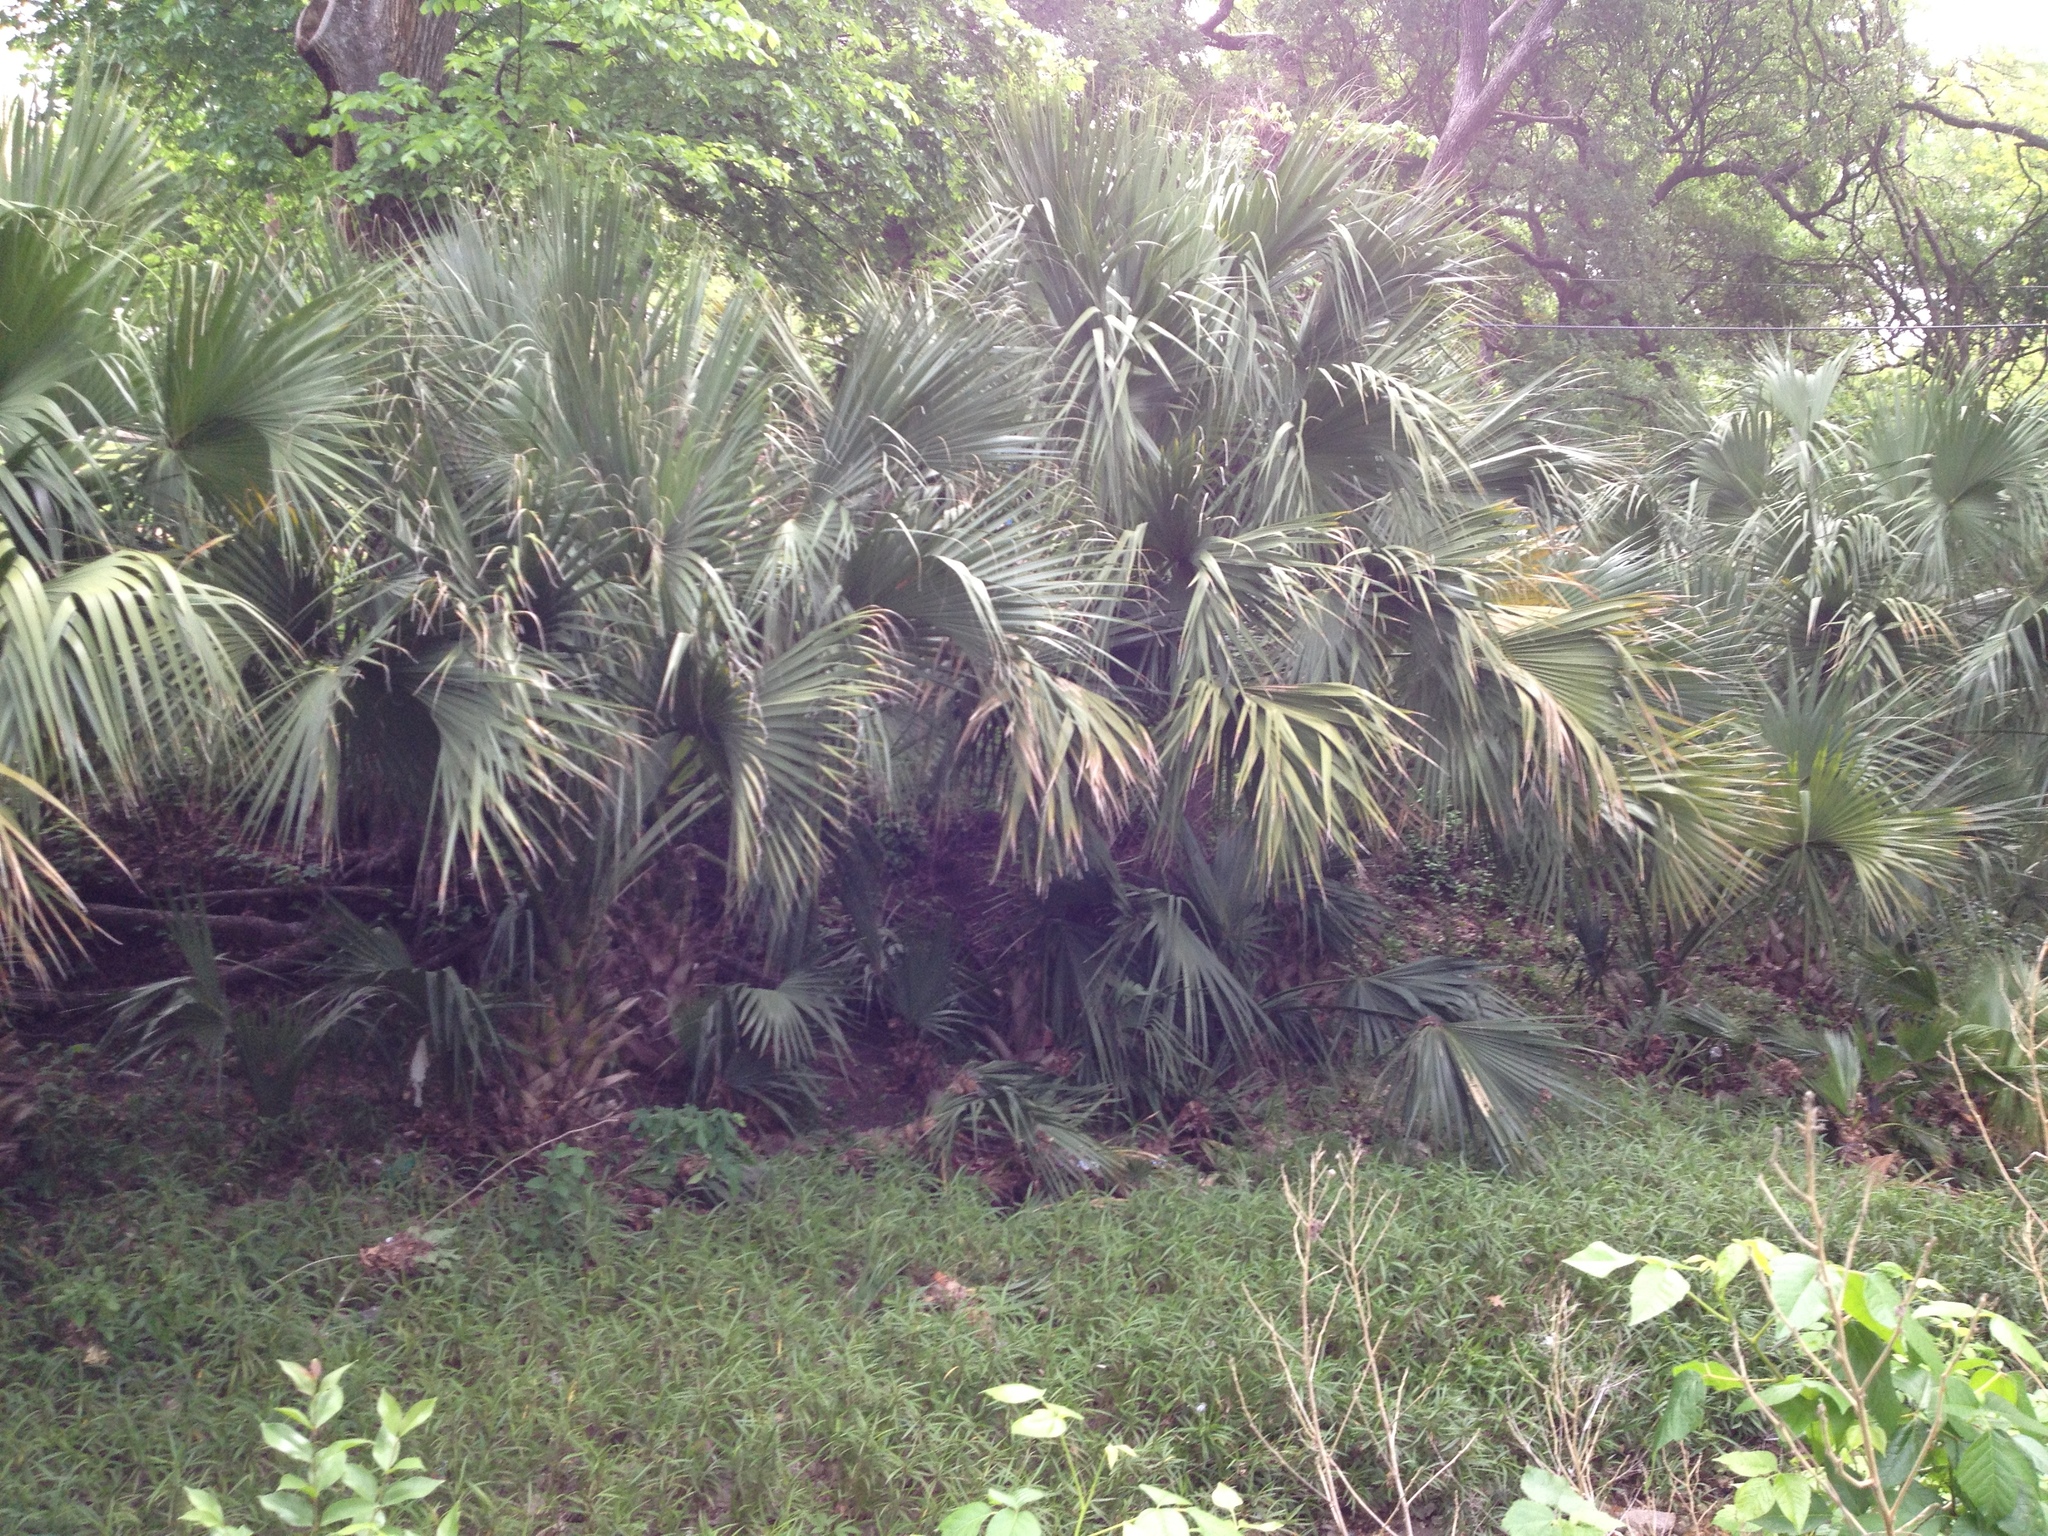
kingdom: Plantae
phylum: Tracheophyta
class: Liliopsida
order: Arecales
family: Arecaceae
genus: Sabal
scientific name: Sabal mexicana
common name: Texas palmetto
